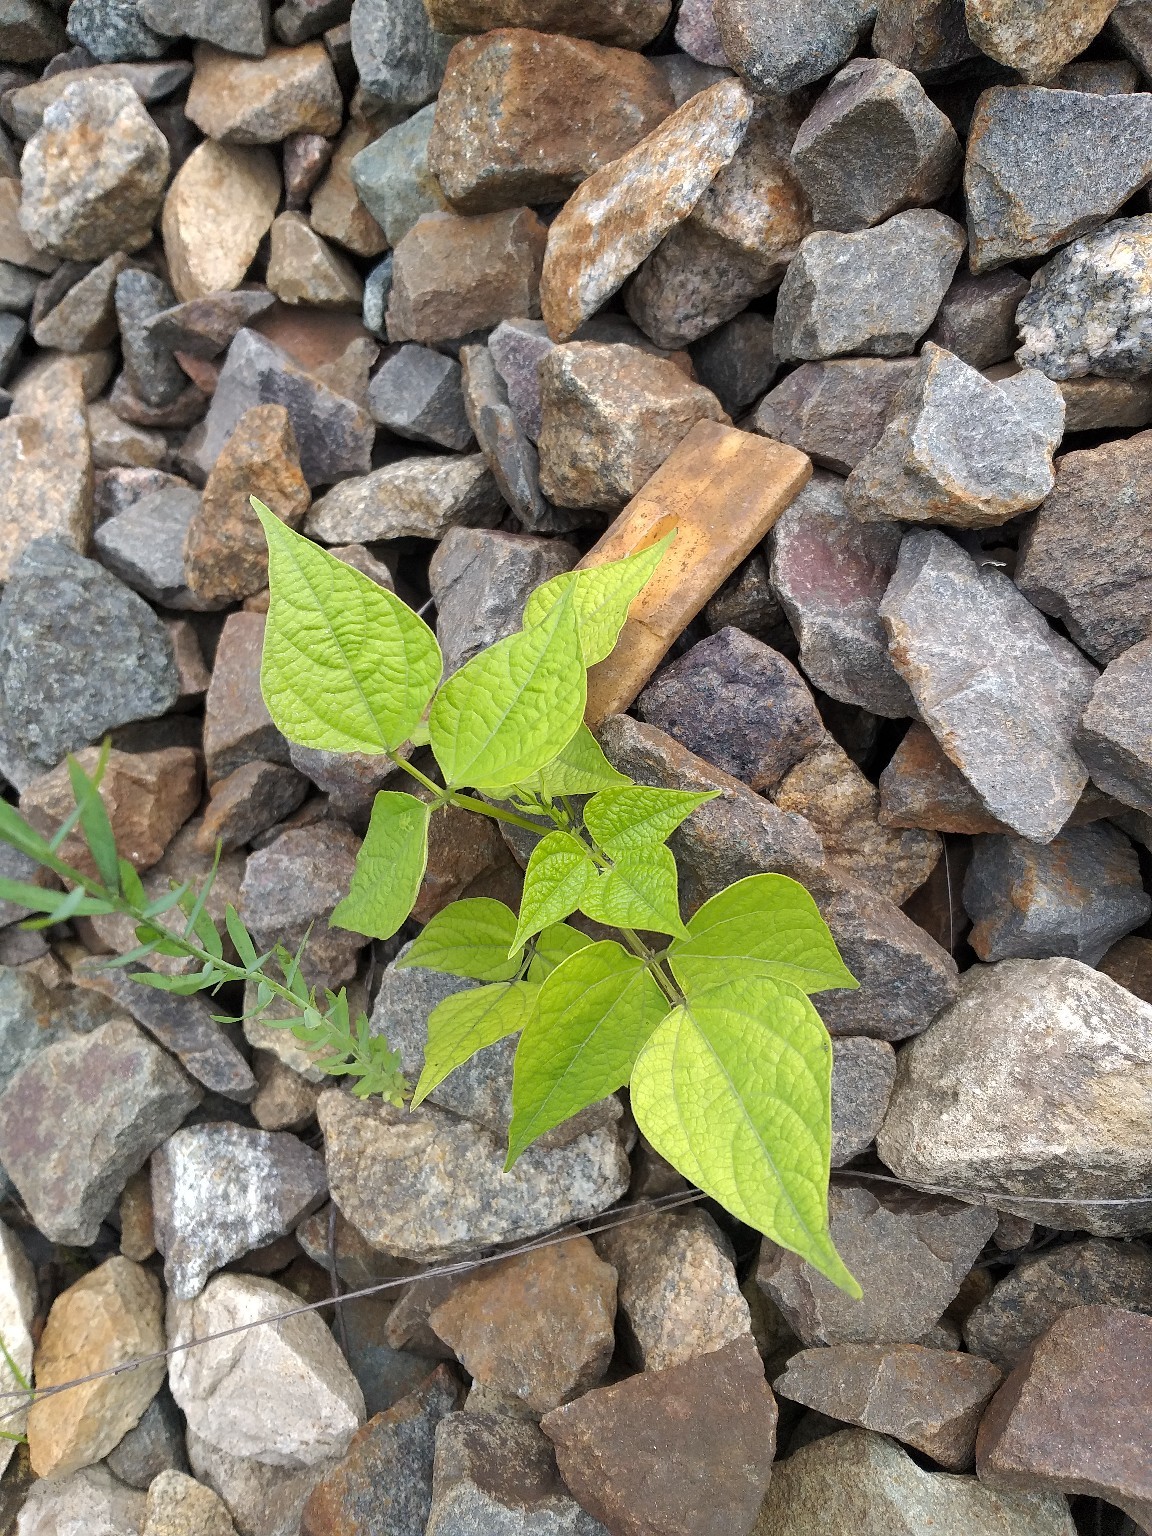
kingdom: Plantae
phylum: Tracheophyta
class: Magnoliopsida
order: Fabales
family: Fabaceae
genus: Phaseolus
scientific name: Phaseolus vulgaris
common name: Bean
